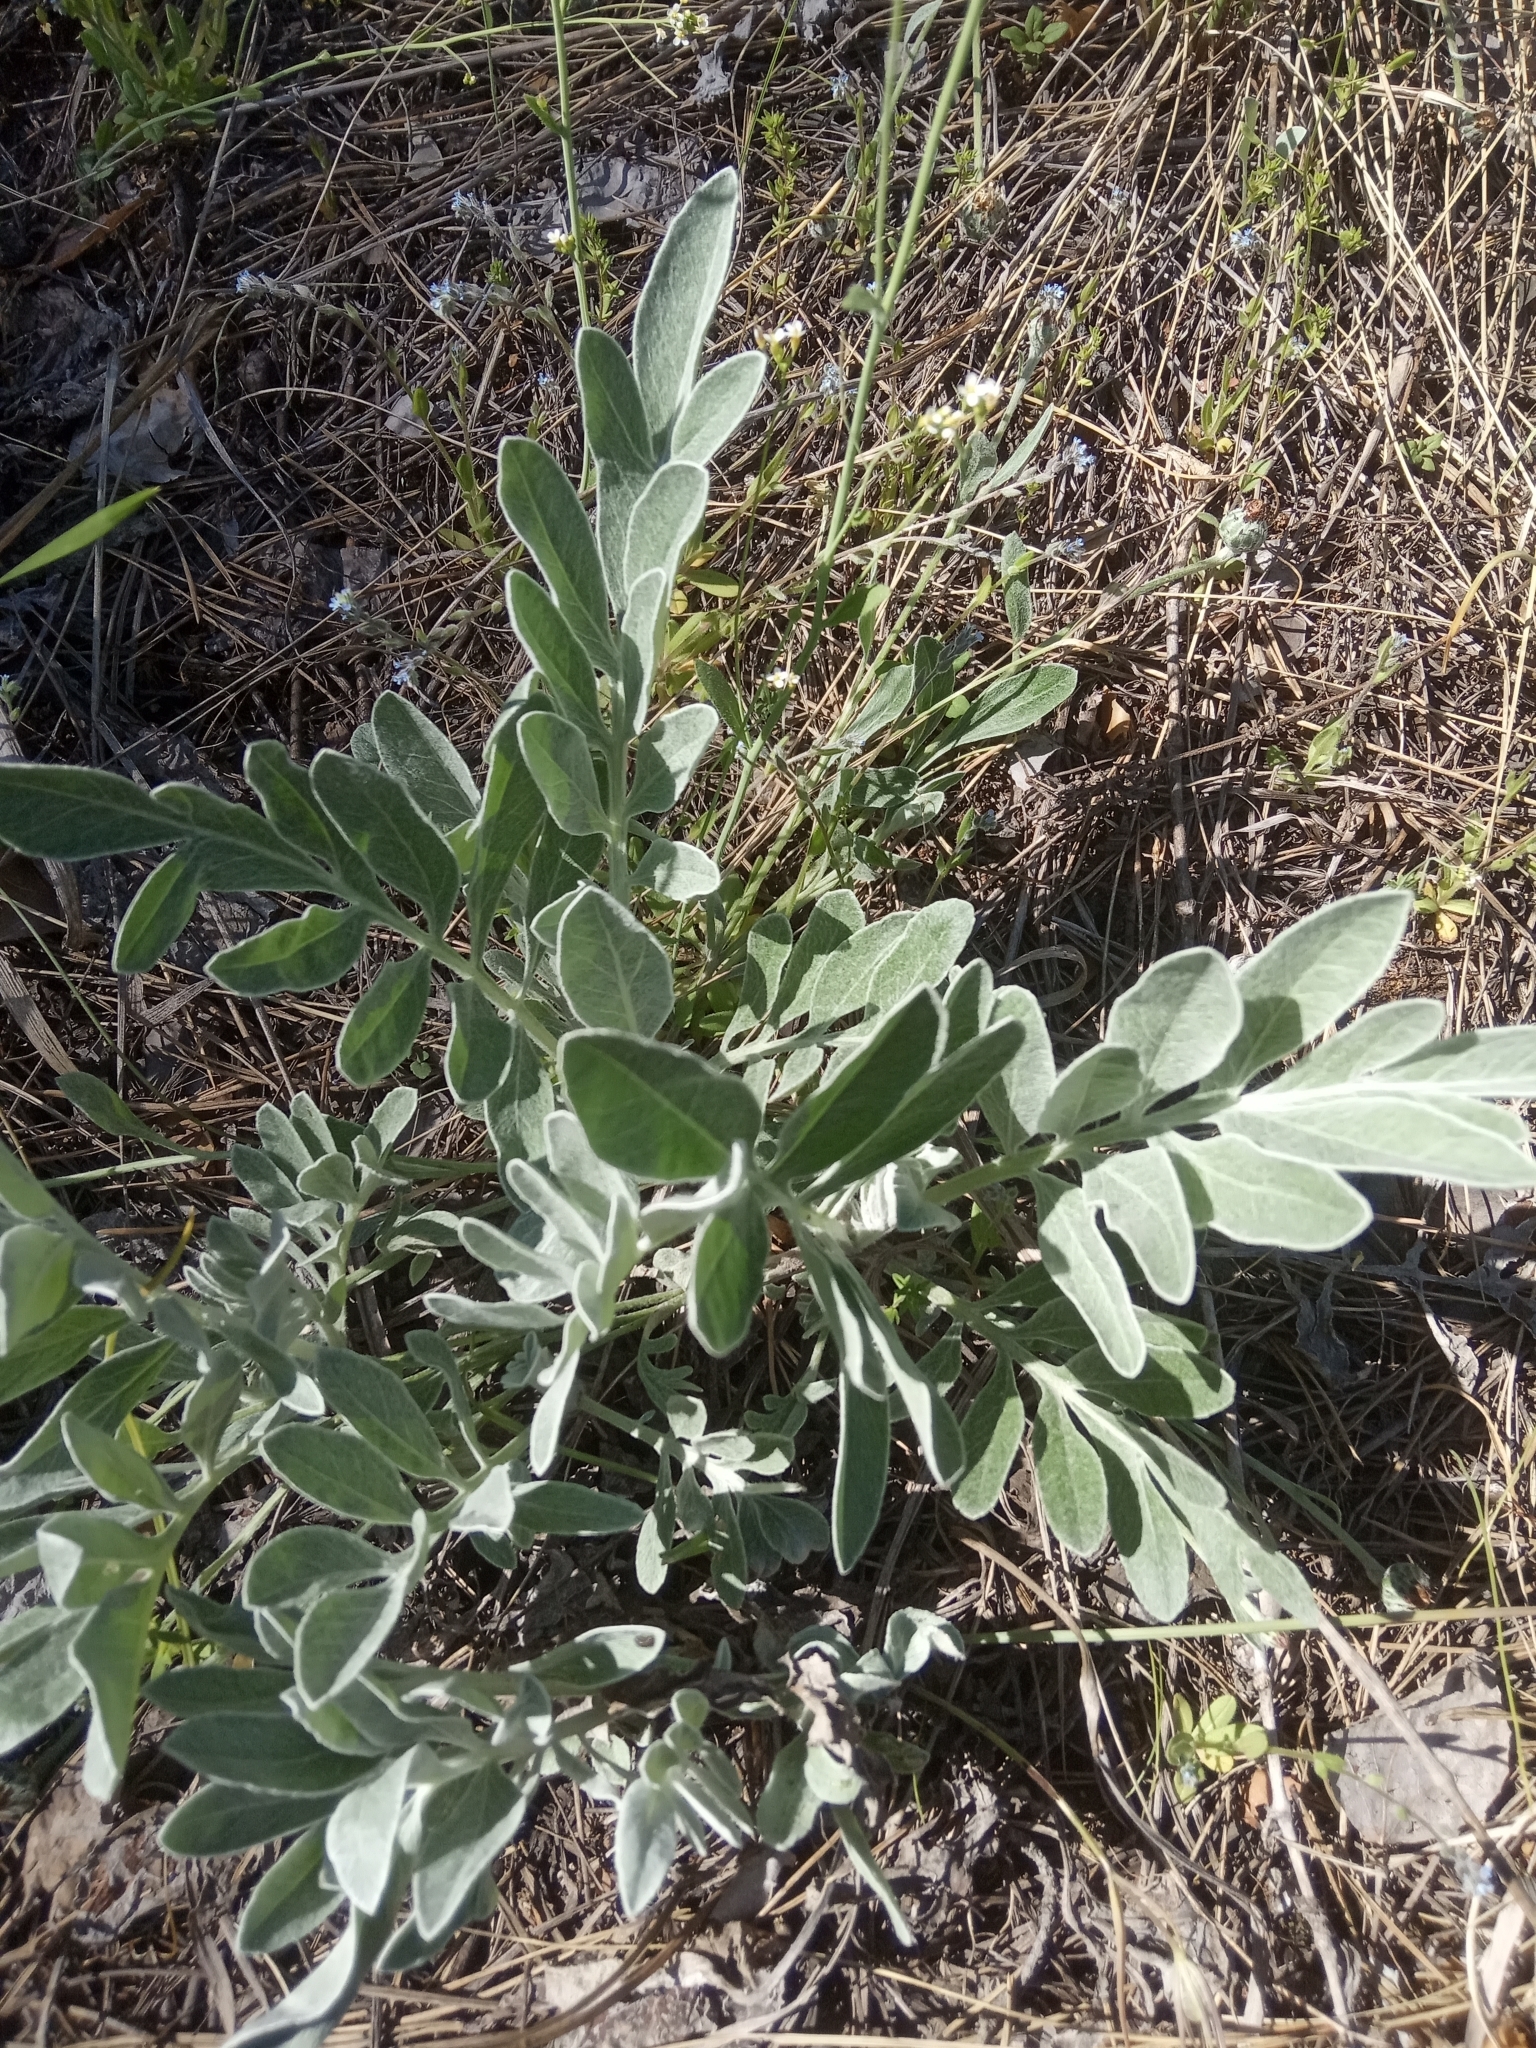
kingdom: Plantae
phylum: Tracheophyta
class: Magnoliopsida
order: Asterales
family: Asteraceae
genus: Psephellus
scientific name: Psephellus sumensis
